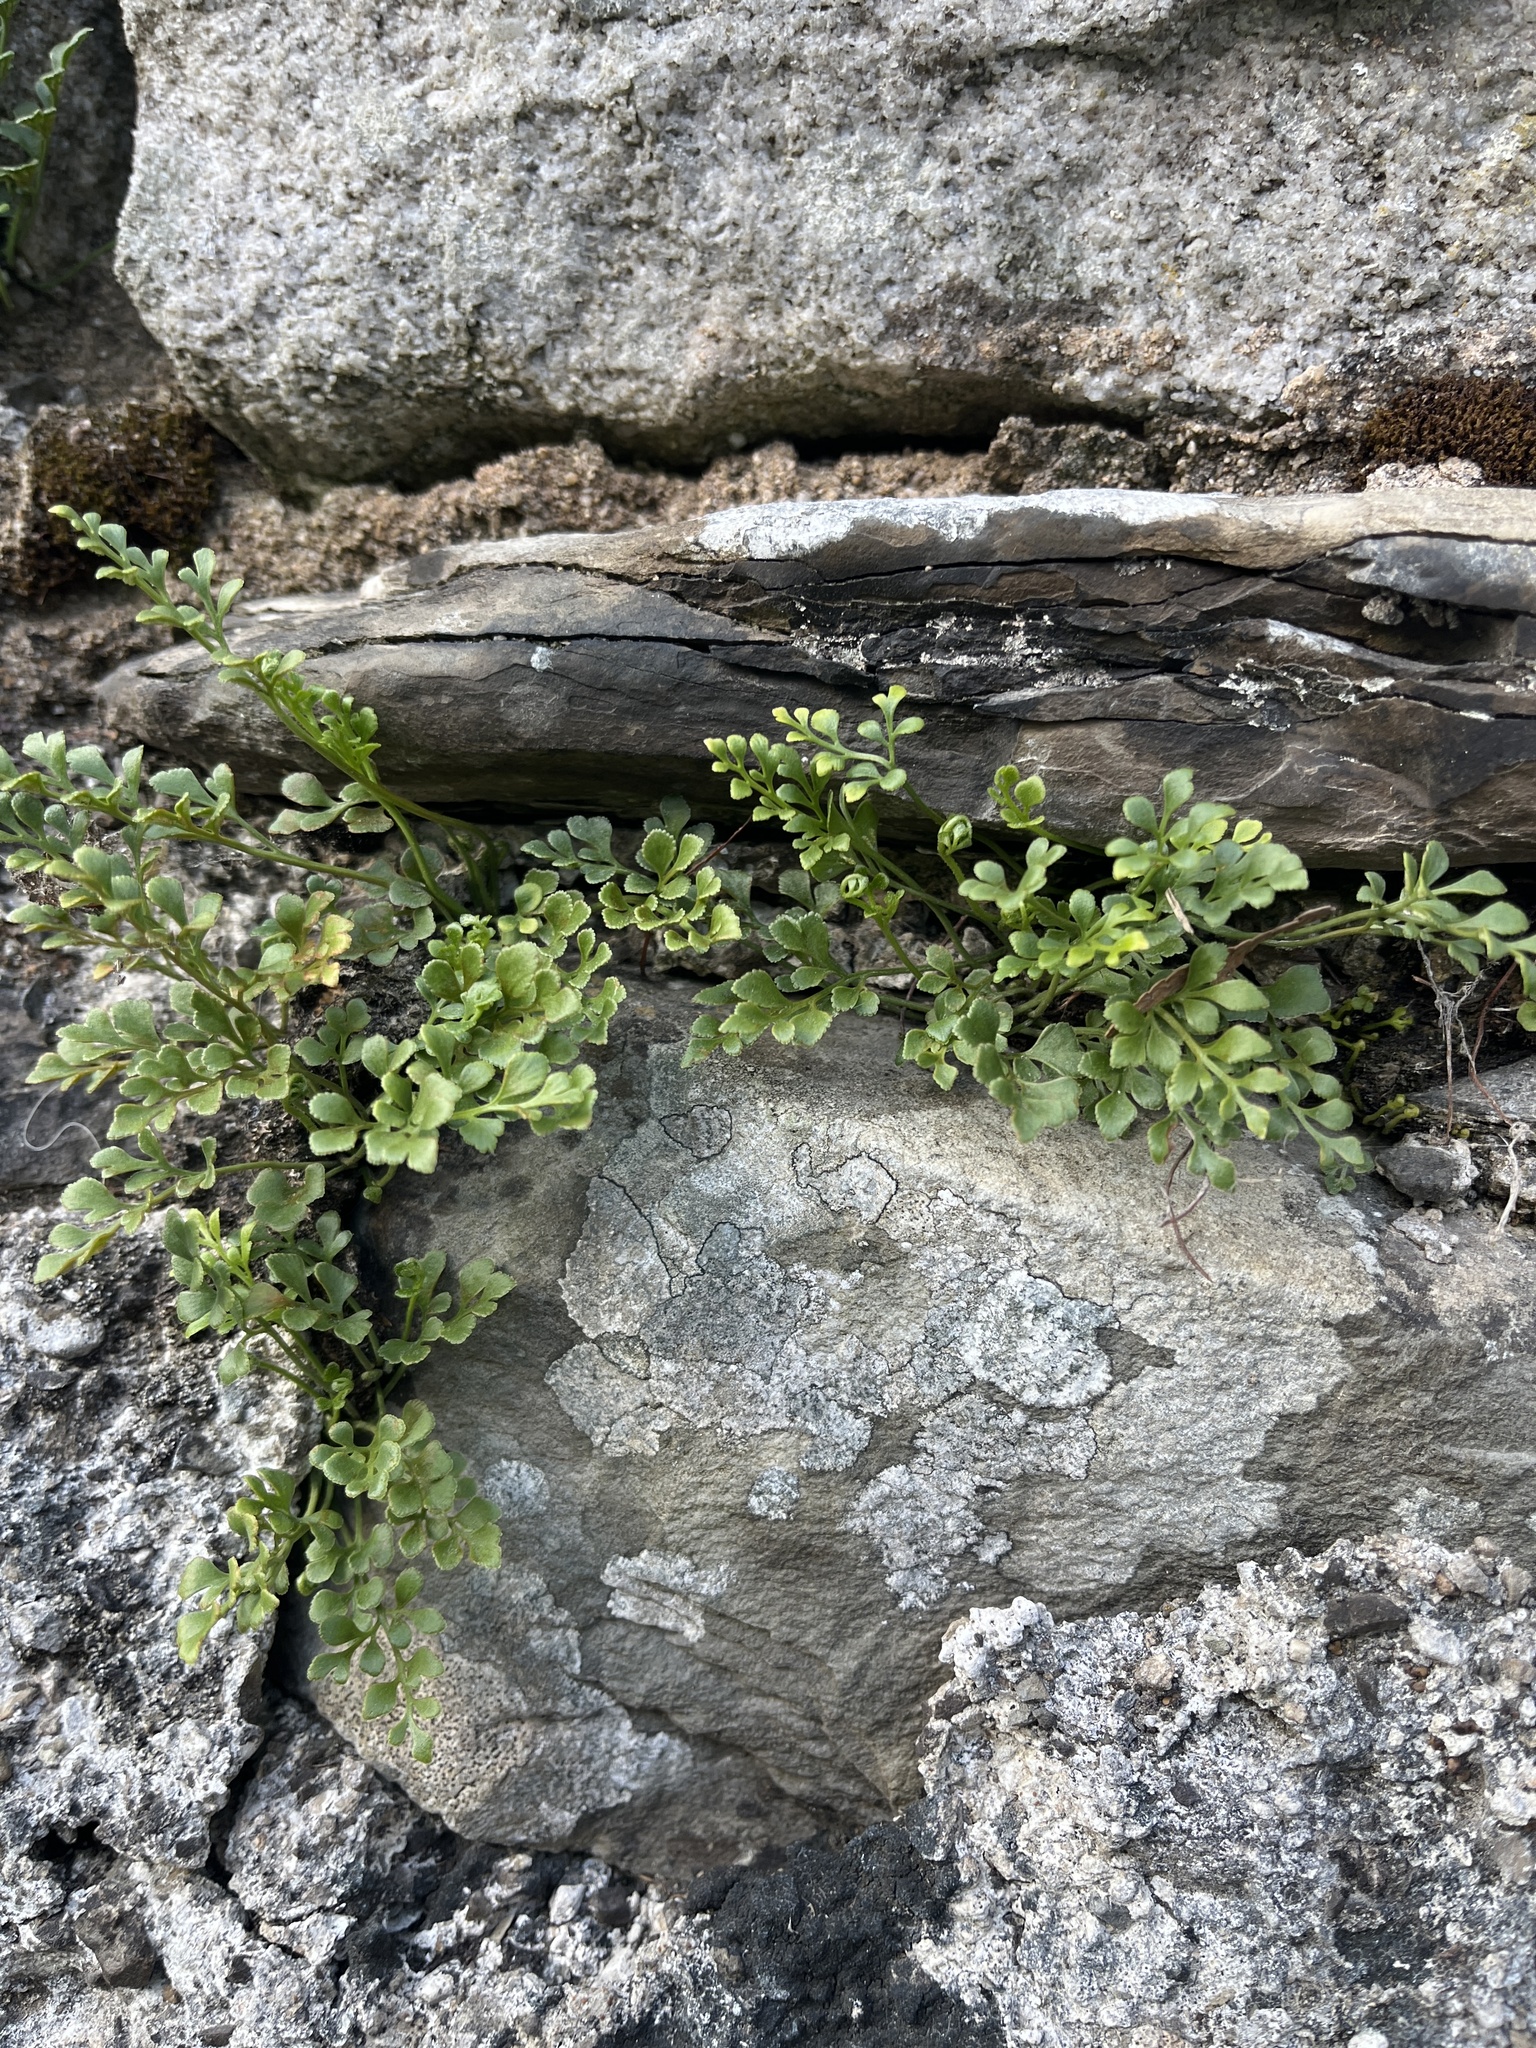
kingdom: Plantae
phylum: Tracheophyta
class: Polypodiopsida
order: Polypodiales
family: Aspleniaceae
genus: Asplenium
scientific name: Asplenium ruta-muraria
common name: Wall-rue
